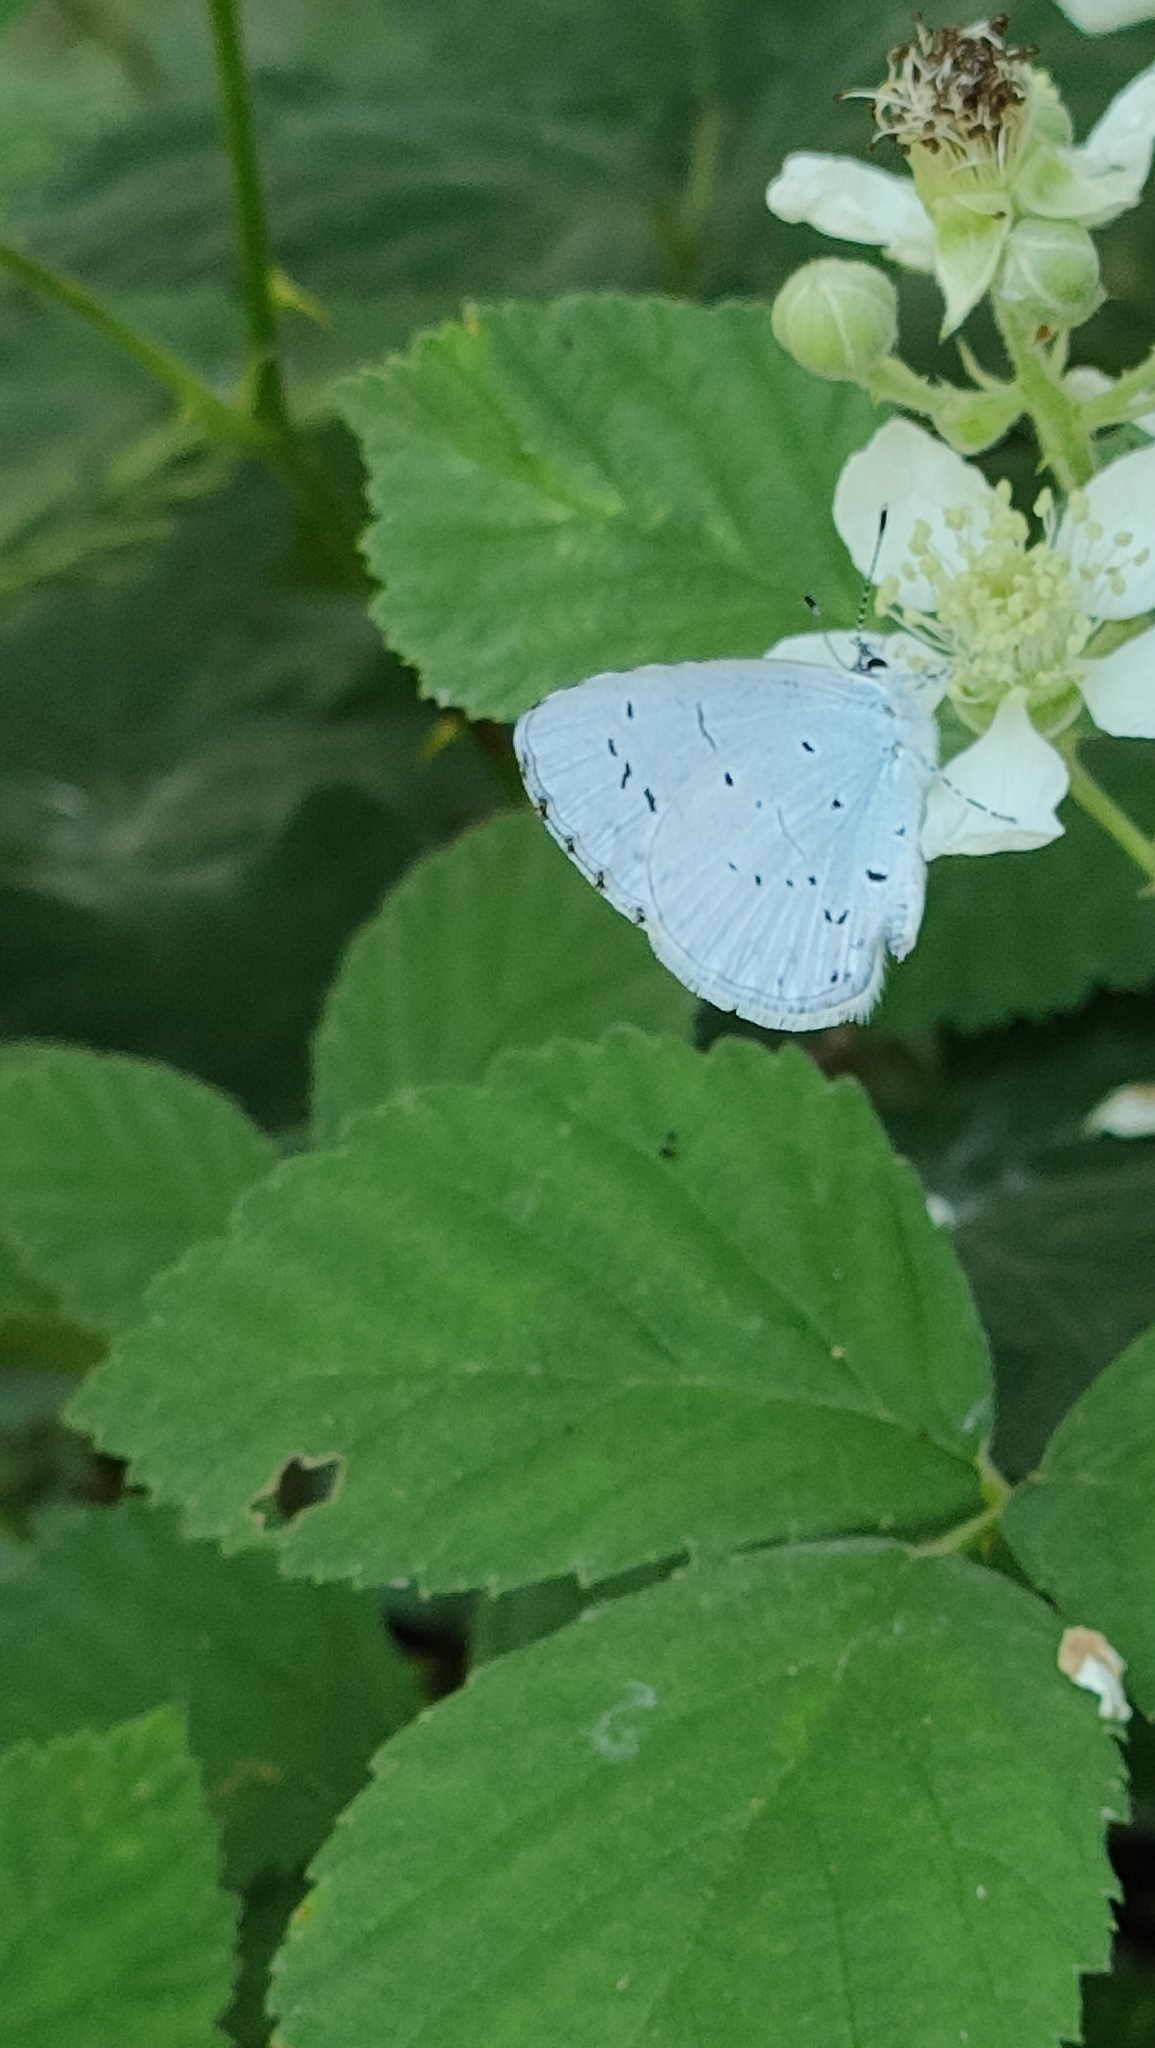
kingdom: Animalia
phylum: Arthropoda
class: Insecta
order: Lepidoptera
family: Lycaenidae
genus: Celastrina
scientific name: Celastrina argiolus
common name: Holly blue
